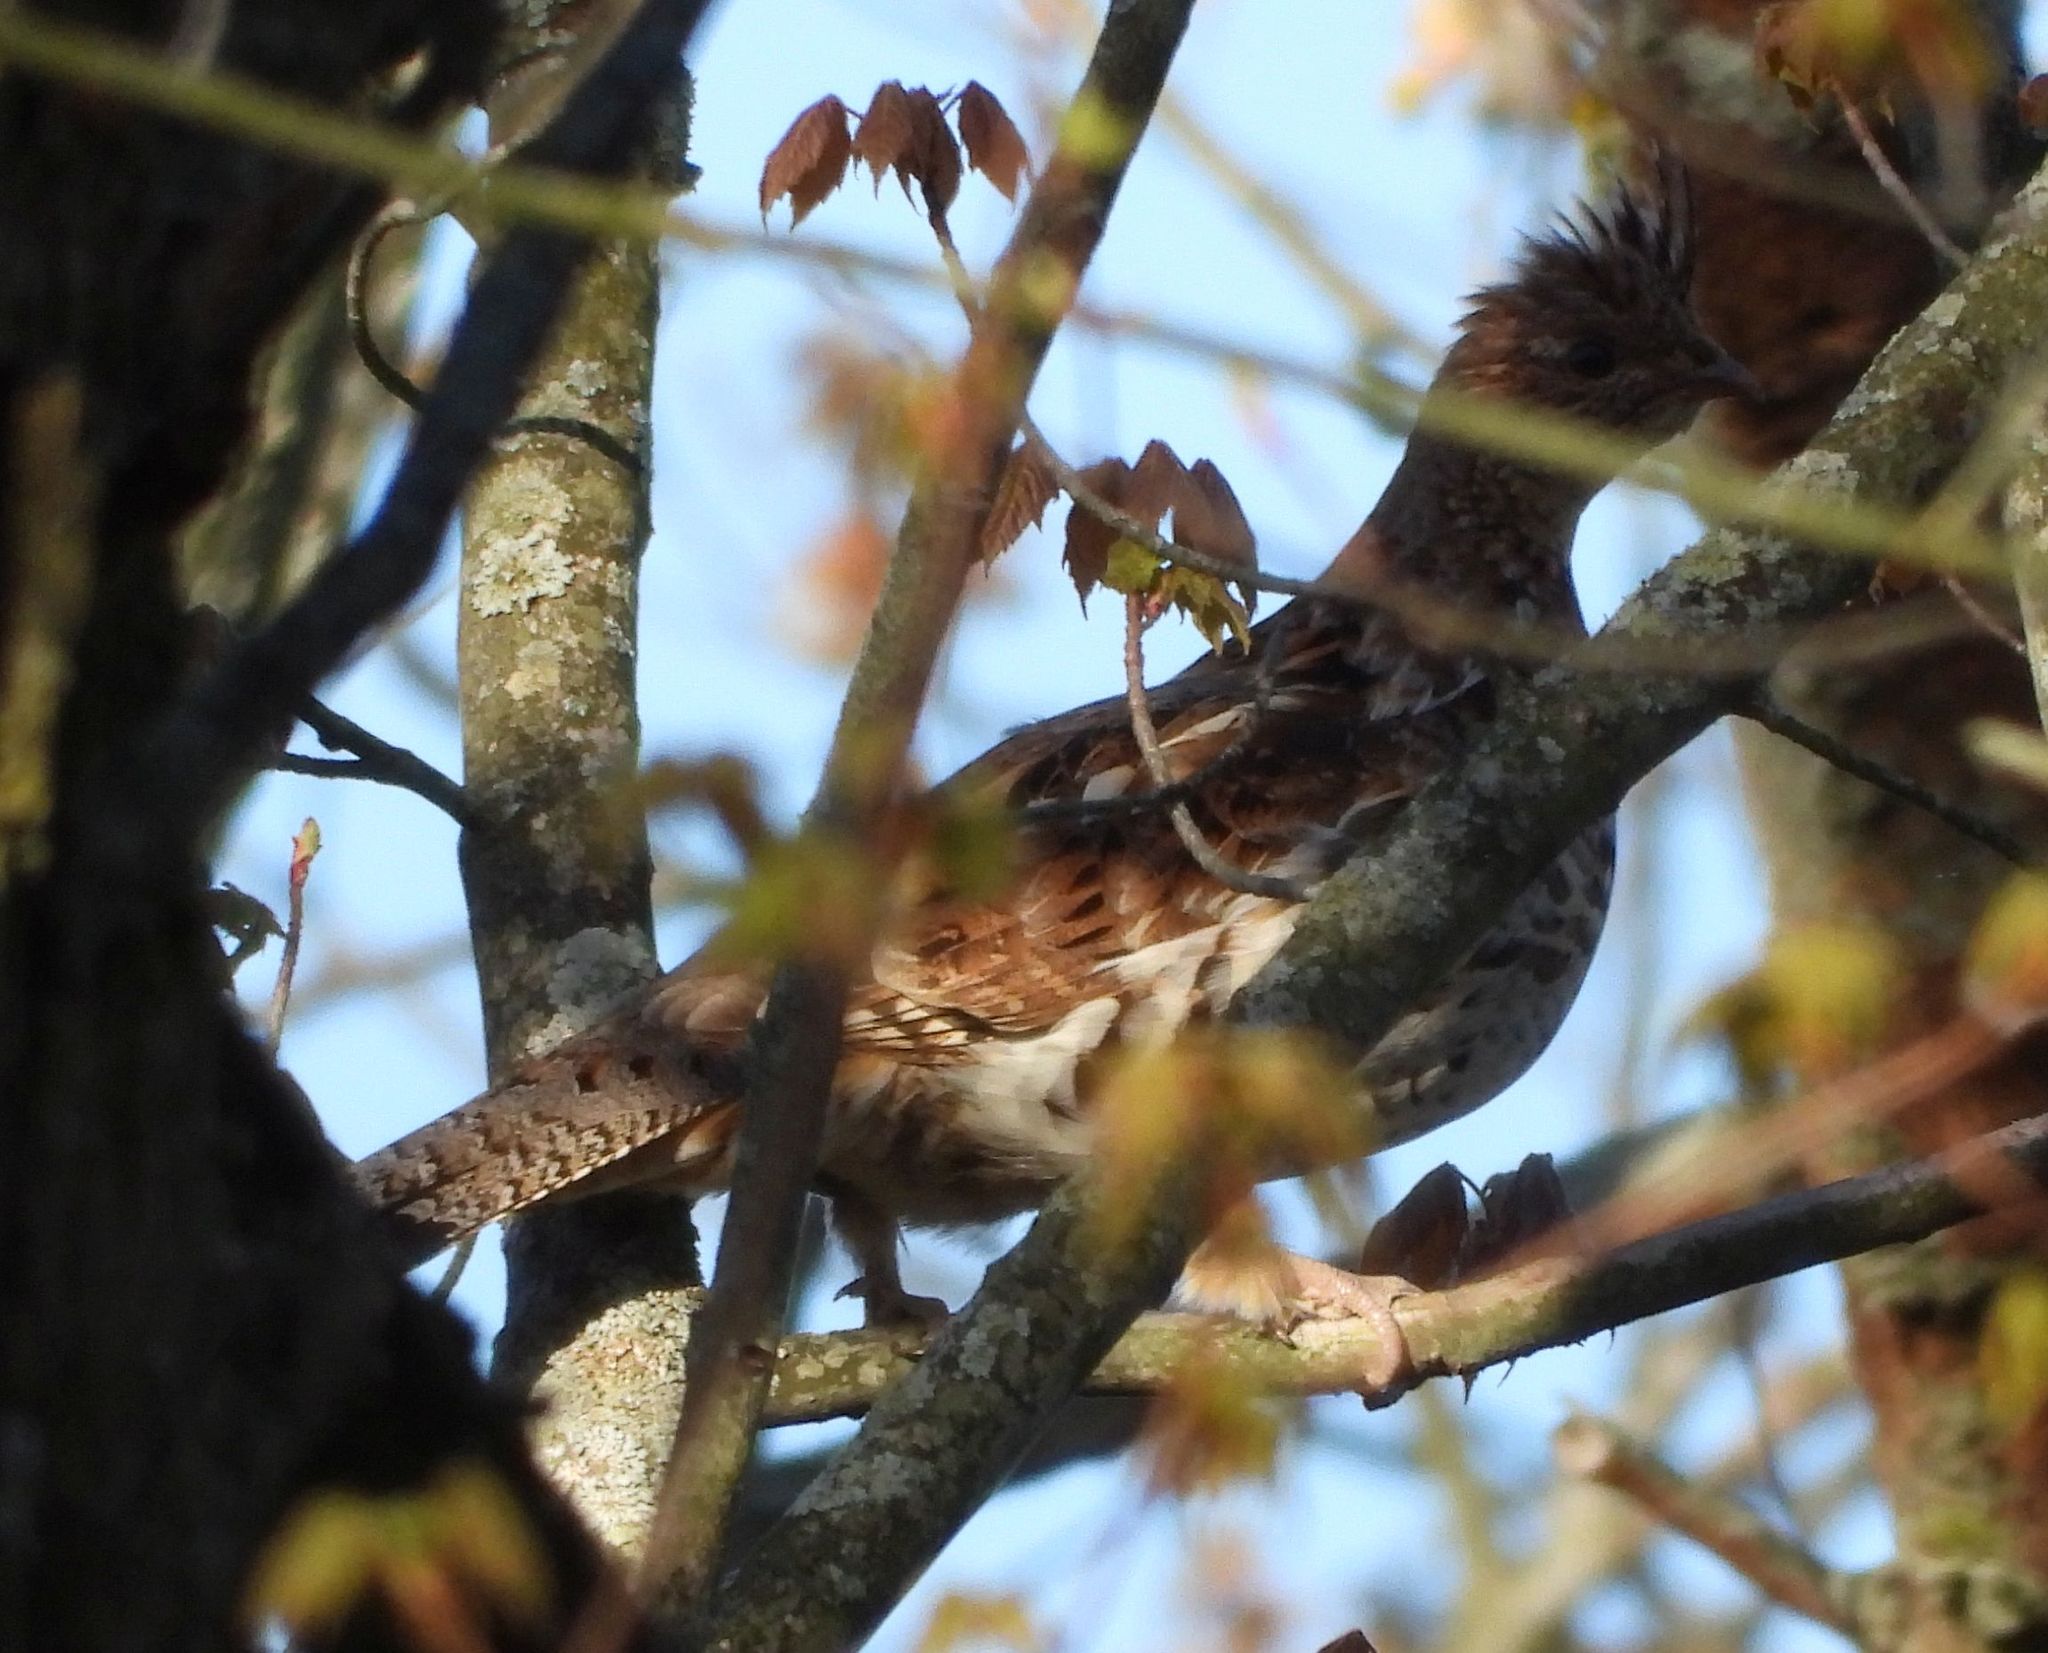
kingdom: Animalia
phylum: Chordata
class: Aves
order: Galliformes
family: Phasianidae
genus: Bonasa
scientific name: Bonasa umbellus
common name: Ruffed grouse
